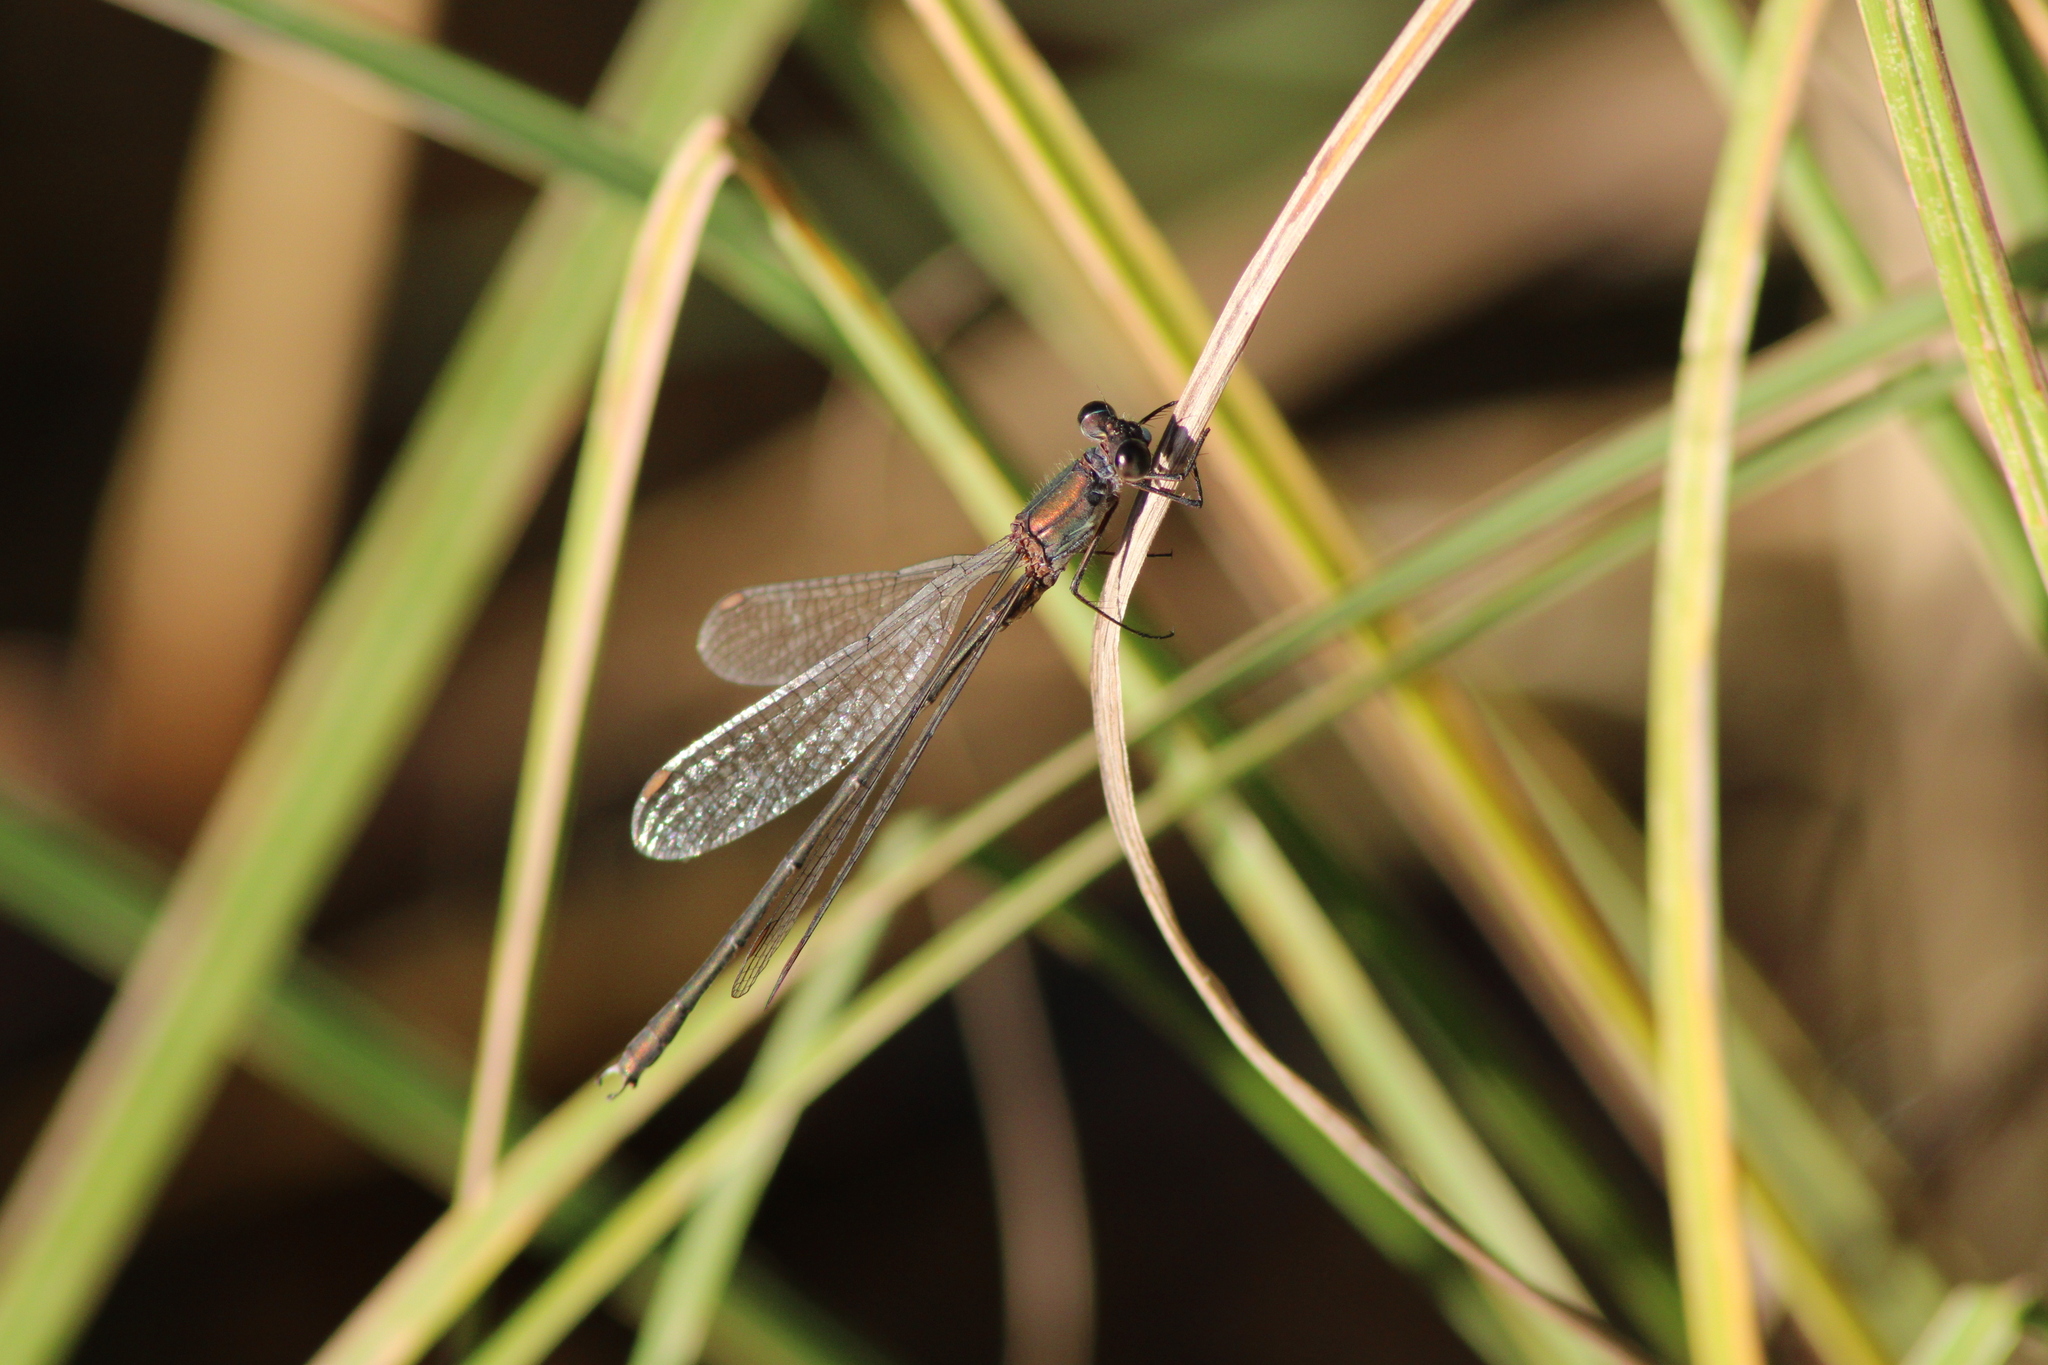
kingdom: Animalia
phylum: Arthropoda
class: Insecta
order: Odonata
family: Lestidae
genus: Chalcolestes
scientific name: Chalcolestes viridis
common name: Green emerald damselfly
